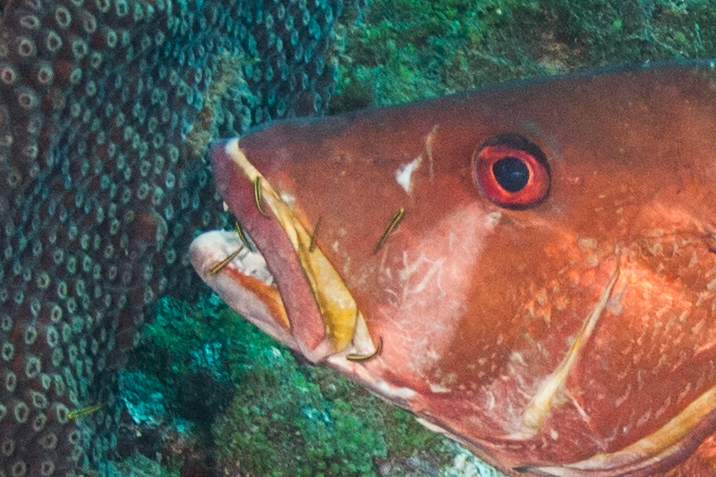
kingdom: Animalia
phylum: Chordata
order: Perciformes
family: Gobiidae
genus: Elacatinus
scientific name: Elacatinus phthirophagus
